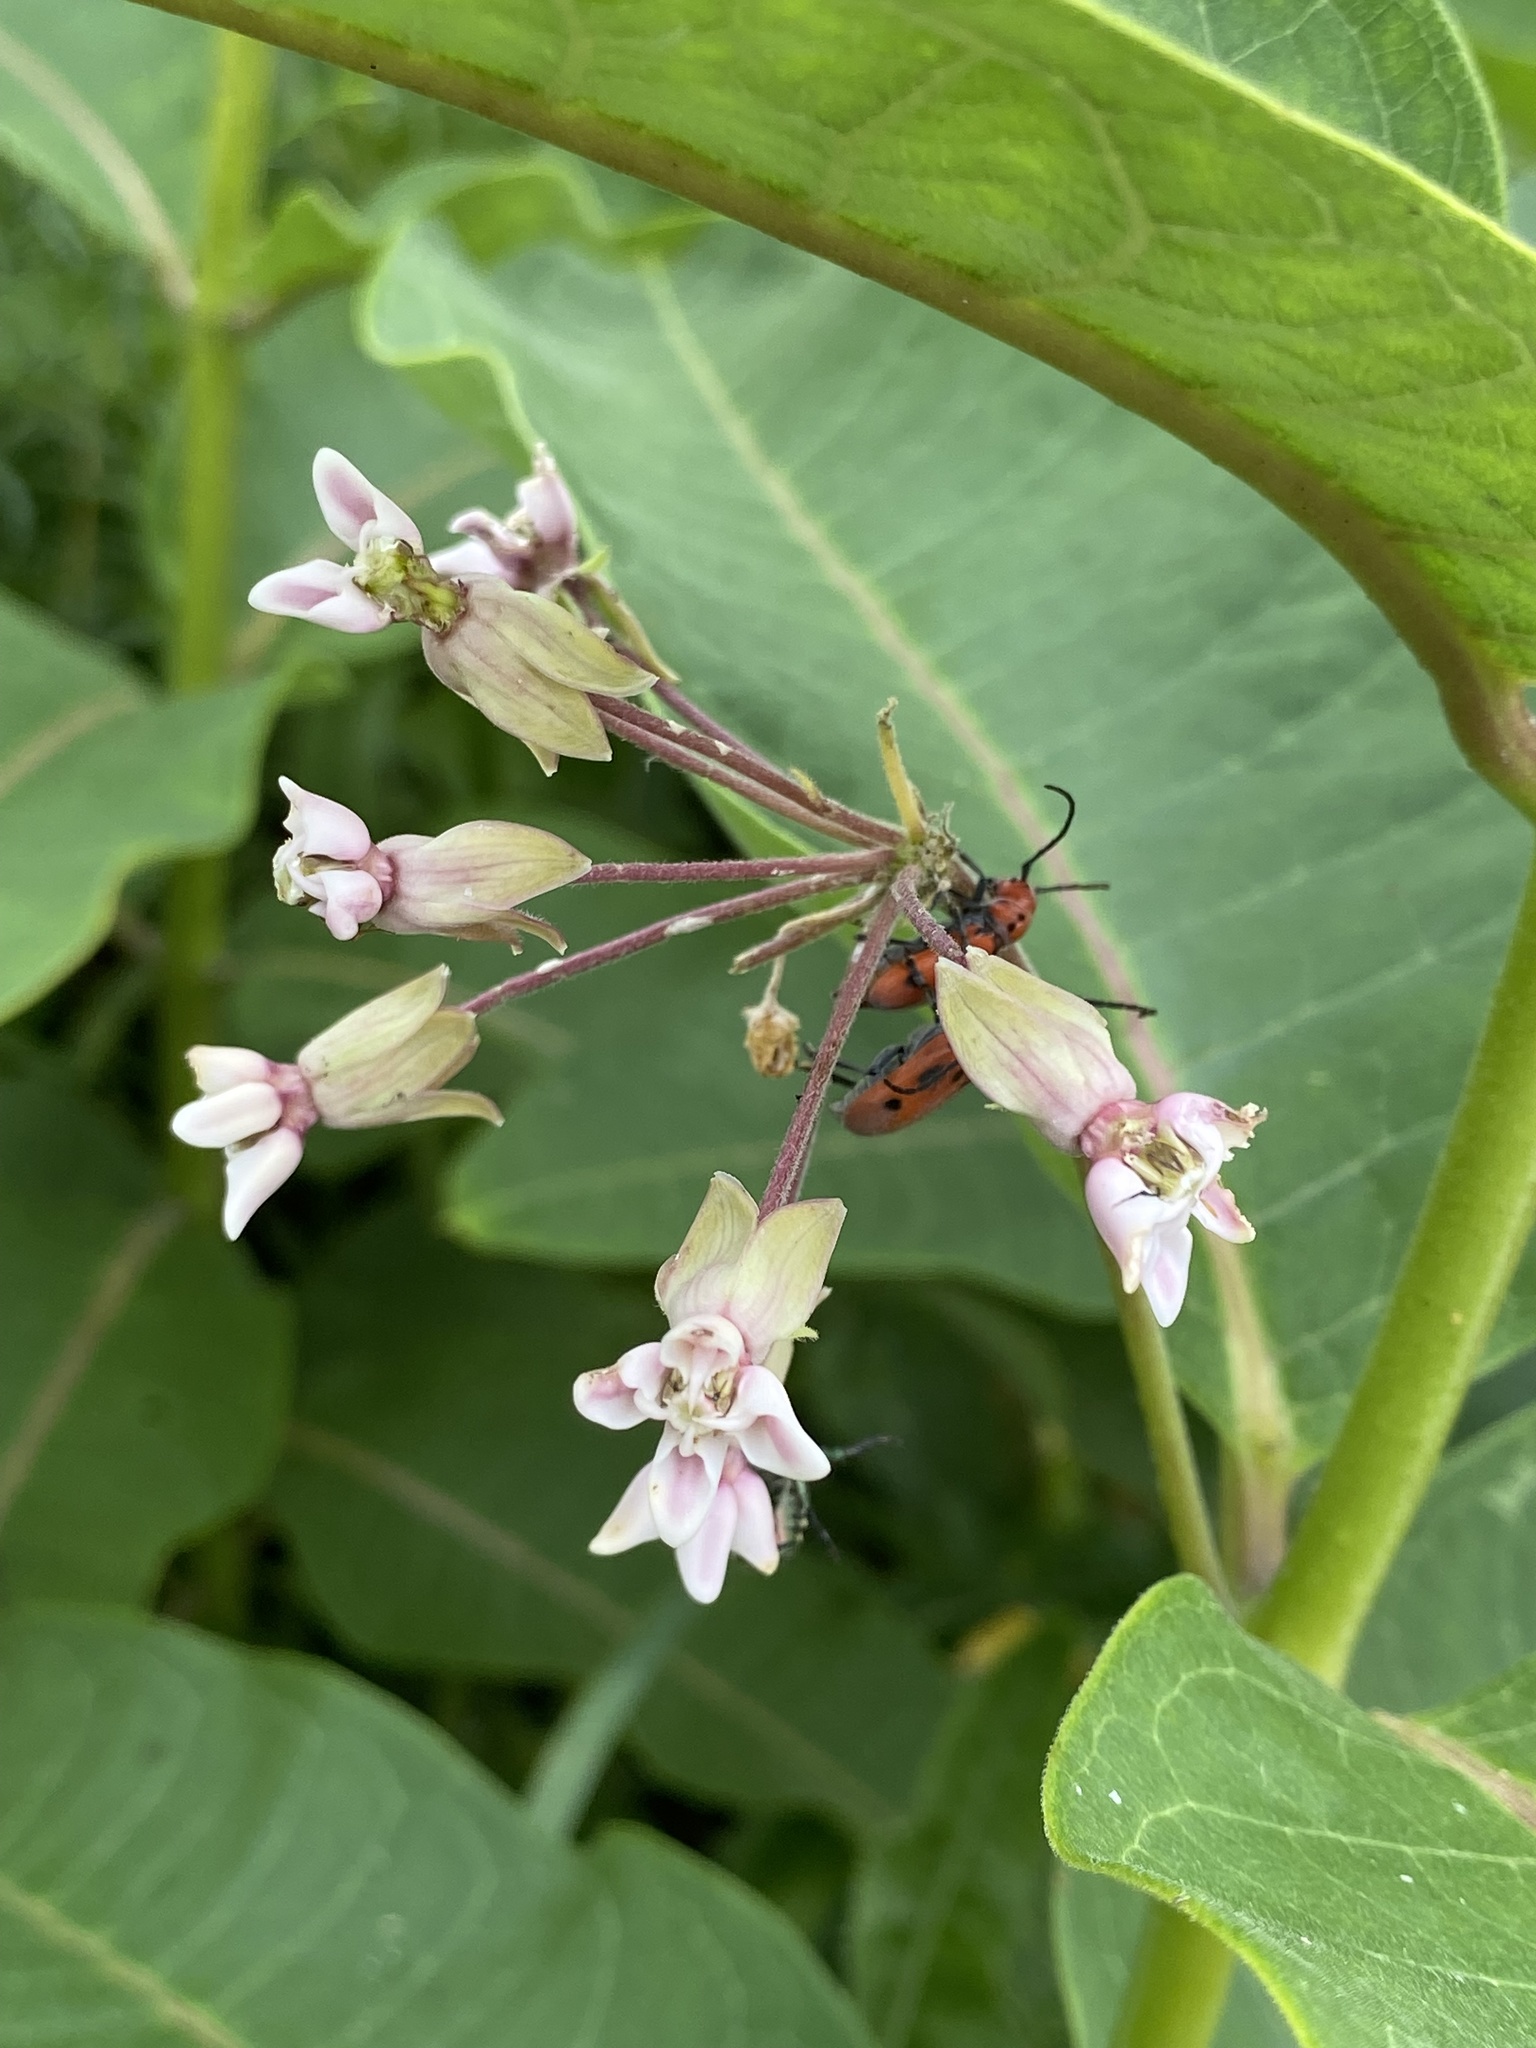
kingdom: Plantae
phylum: Tracheophyta
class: Magnoliopsida
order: Gentianales
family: Apocynaceae
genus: Asclepias
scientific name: Asclepias syriaca
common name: Common milkweed
